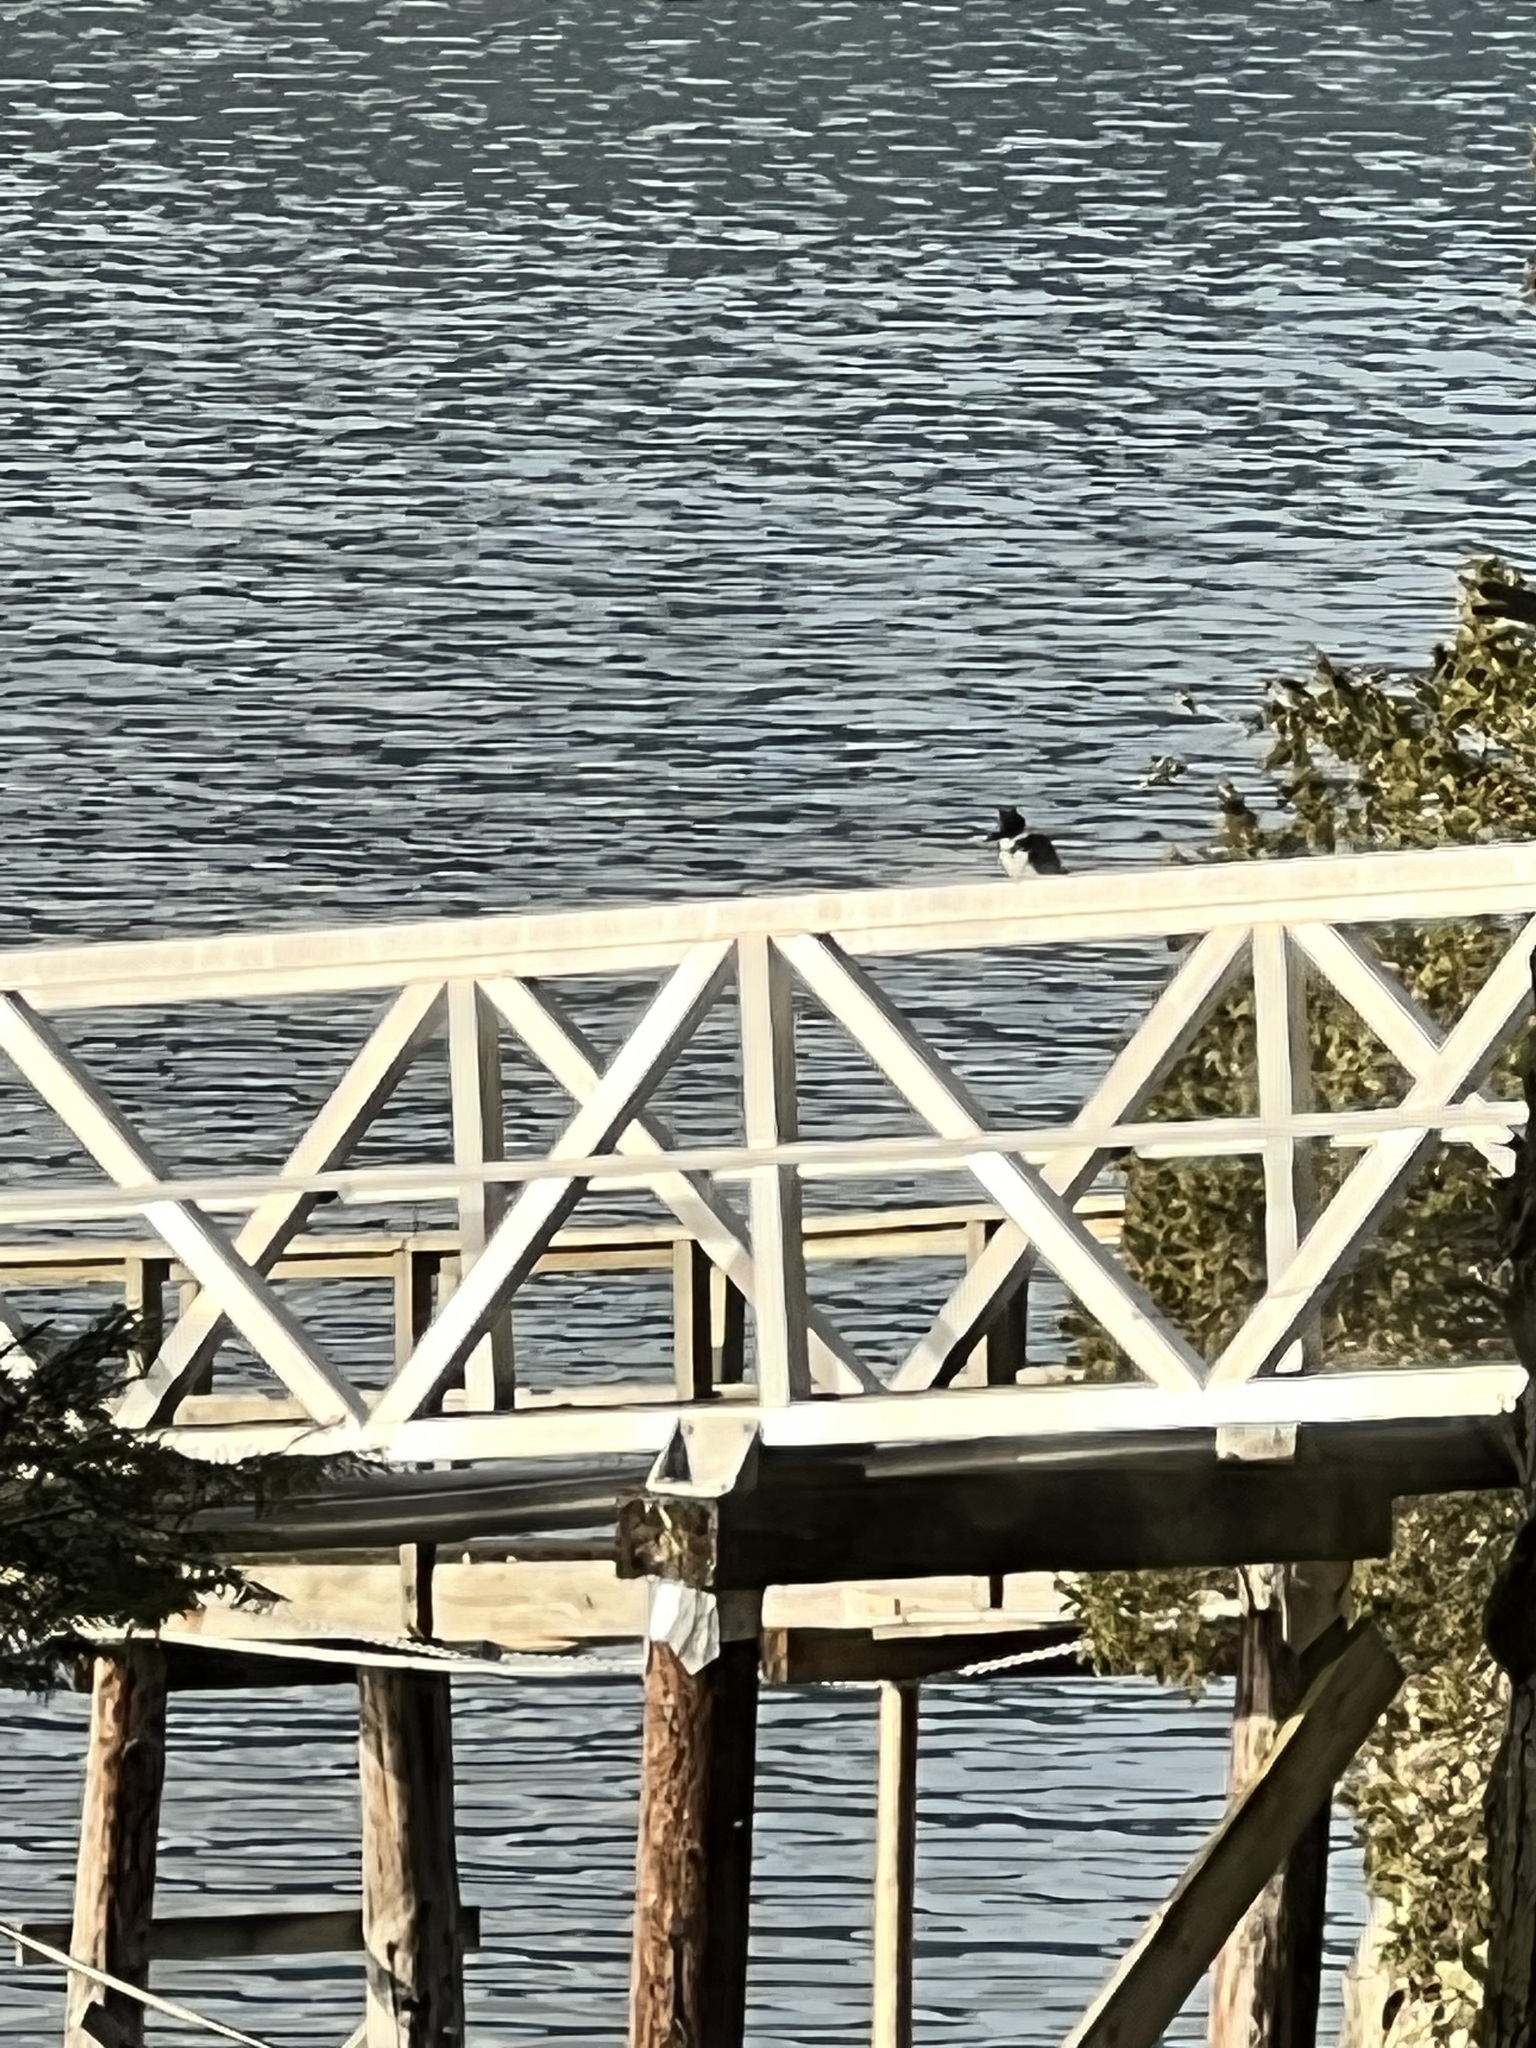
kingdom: Animalia
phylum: Chordata
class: Aves
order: Coraciiformes
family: Alcedinidae
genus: Megaceryle
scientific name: Megaceryle alcyon
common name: Belted kingfisher
